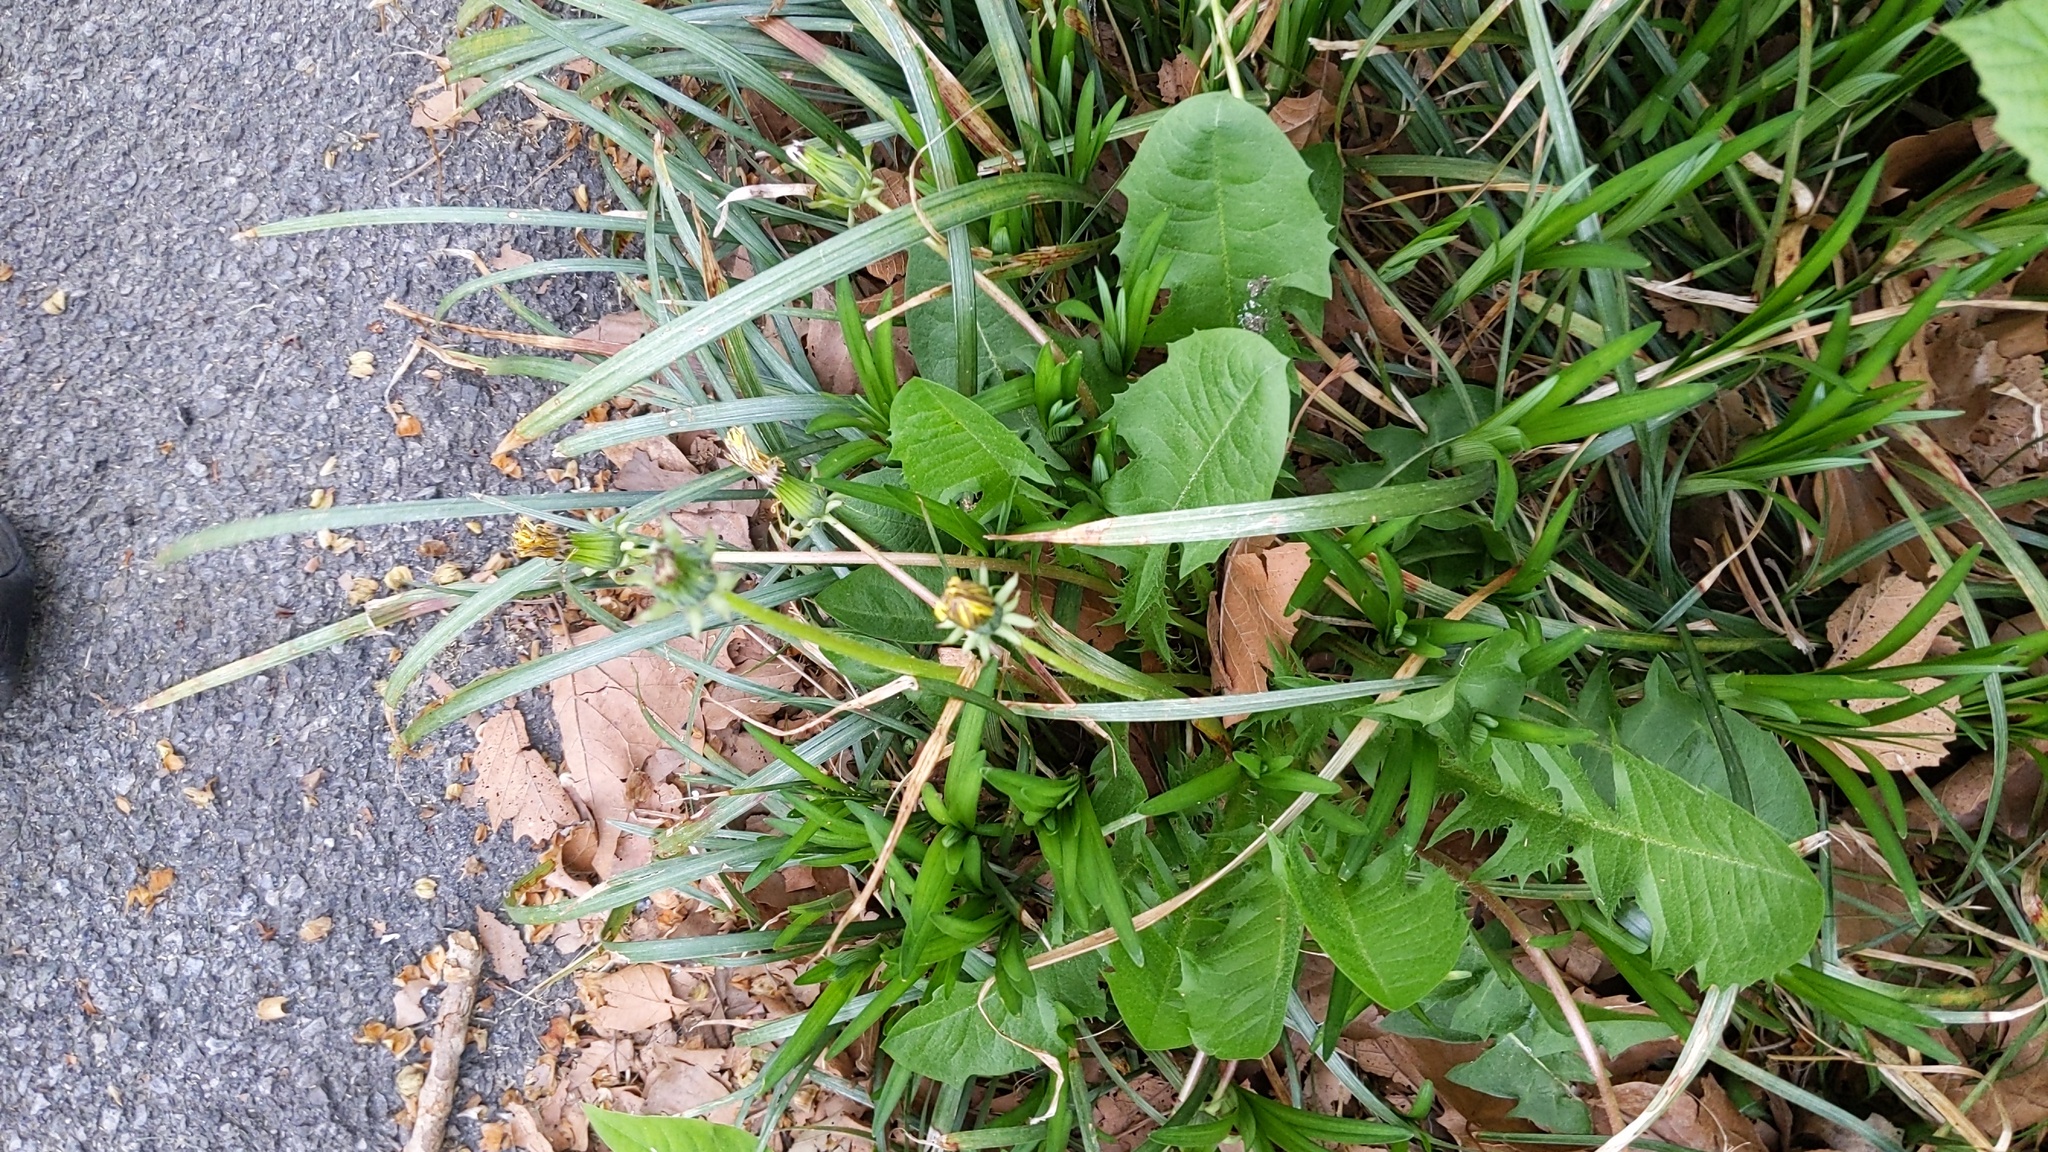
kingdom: Plantae
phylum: Tracheophyta
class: Magnoliopsida
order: Asterales
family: Asteraceae
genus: Taraxacum
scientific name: Taraxacum officinale
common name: Common dandelion
